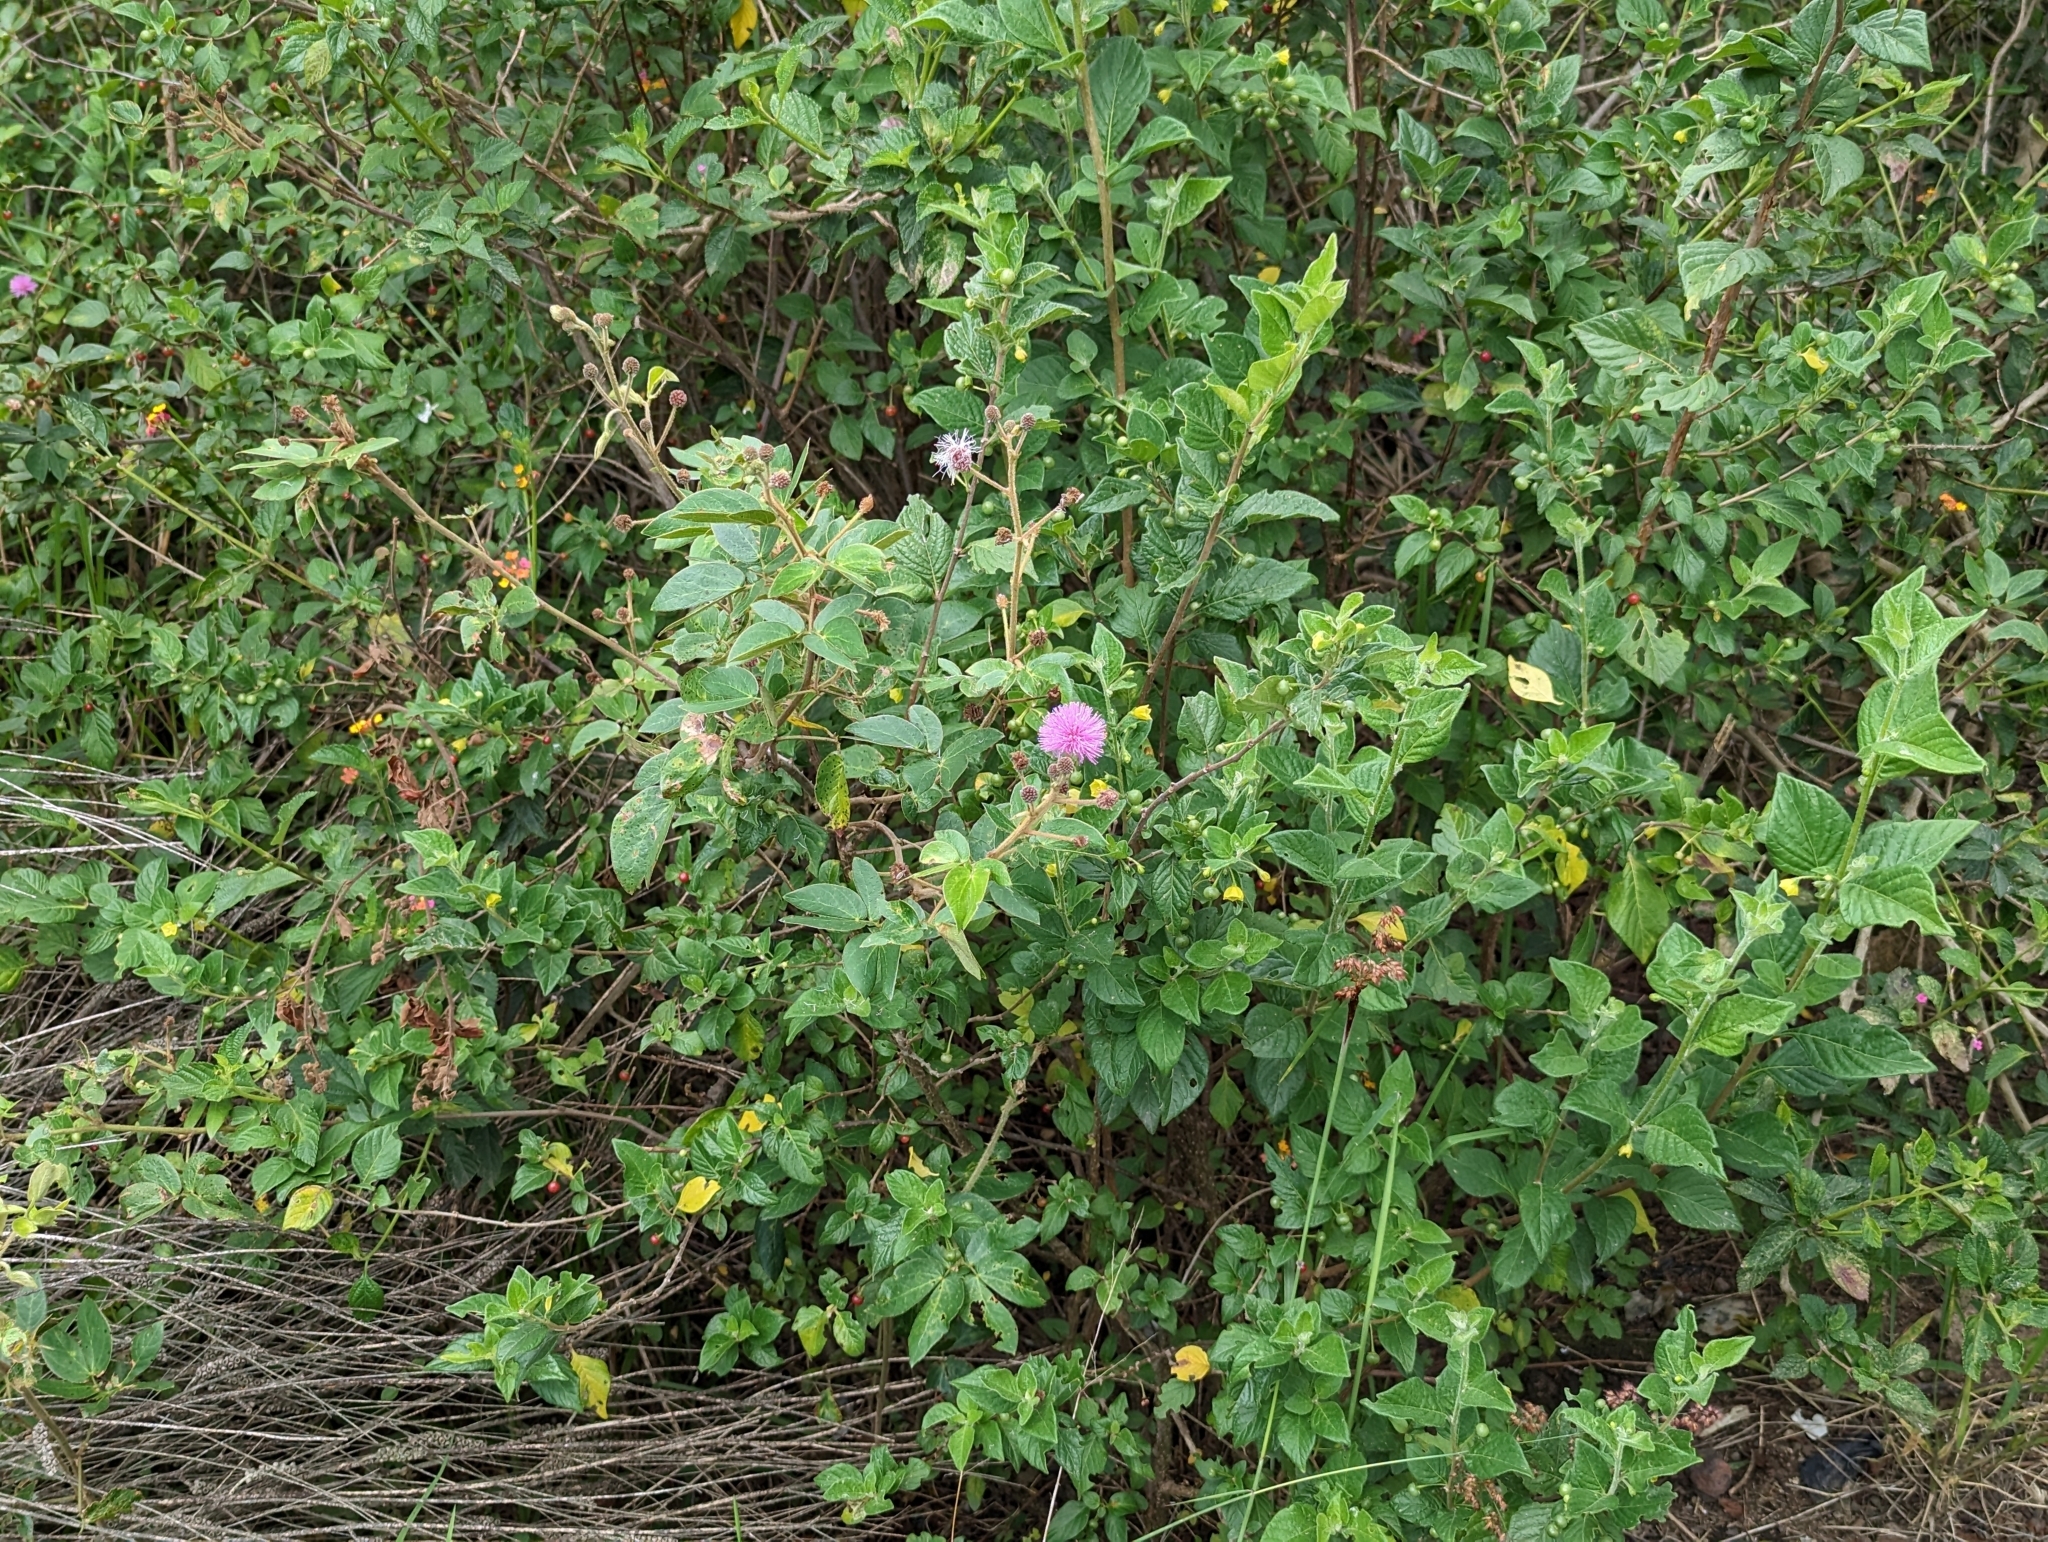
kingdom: Plantae
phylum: Tracheophyta
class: Magnoliopsida
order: Fabales
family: Fabaceae
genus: Mimosa
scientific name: Mimosa albida
